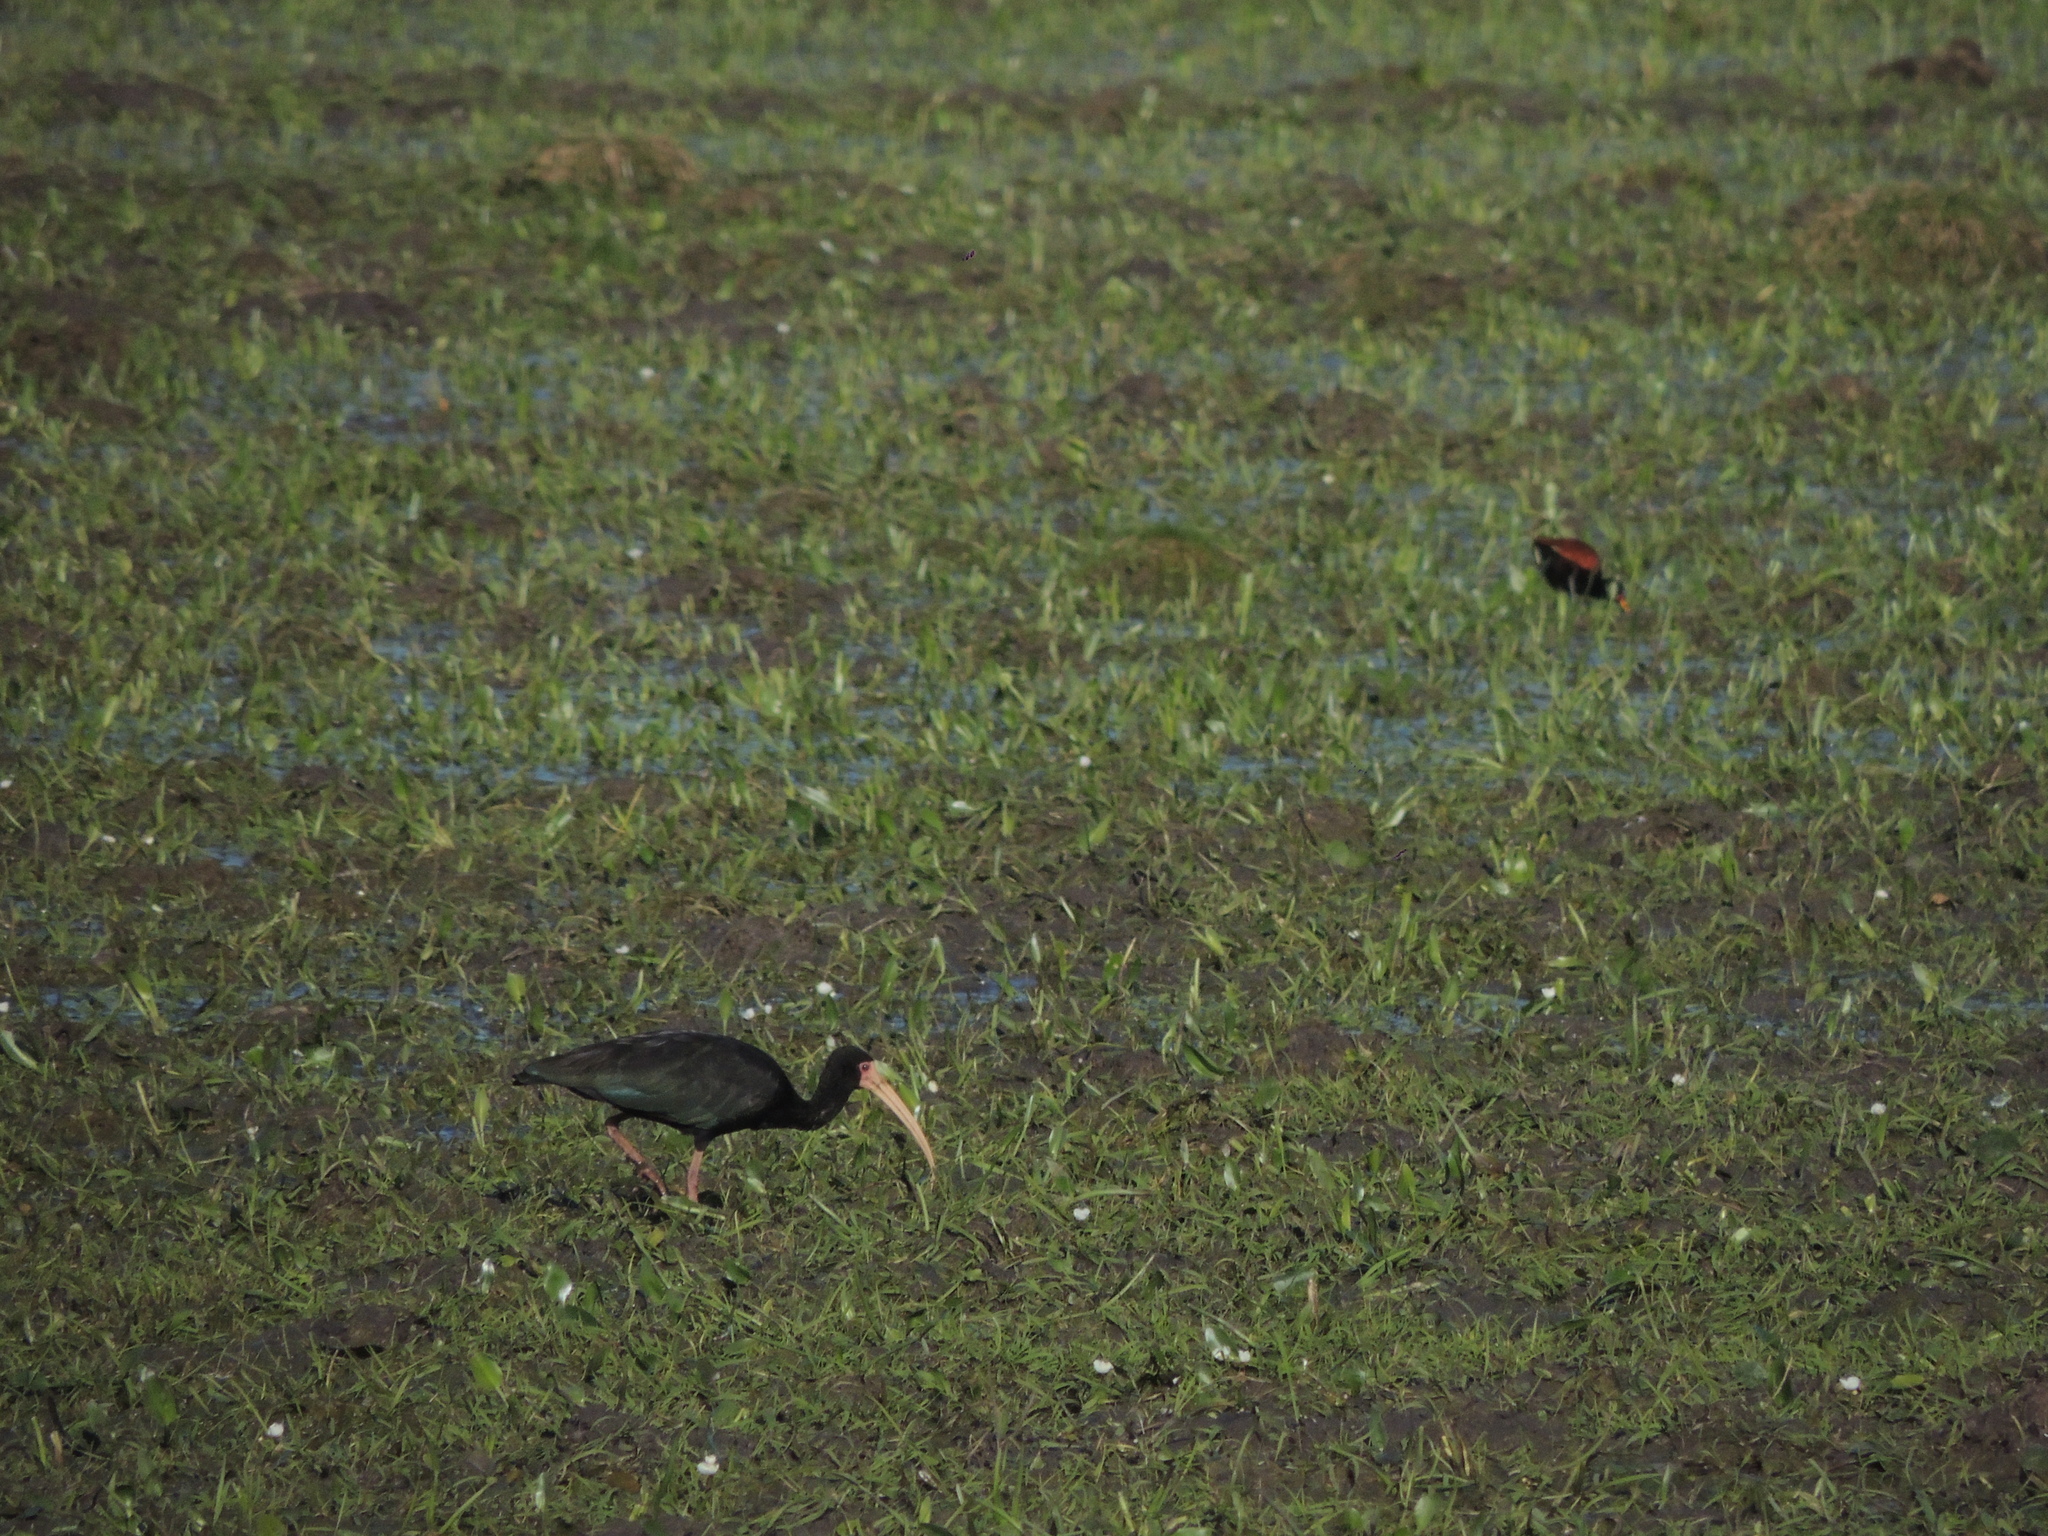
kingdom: Animalia
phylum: Chordata
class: Aves
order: Pelecaniformes
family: Threskiornithidae
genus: Phimosus
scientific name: Phimosus infuscatus
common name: Bare-faced ibis
